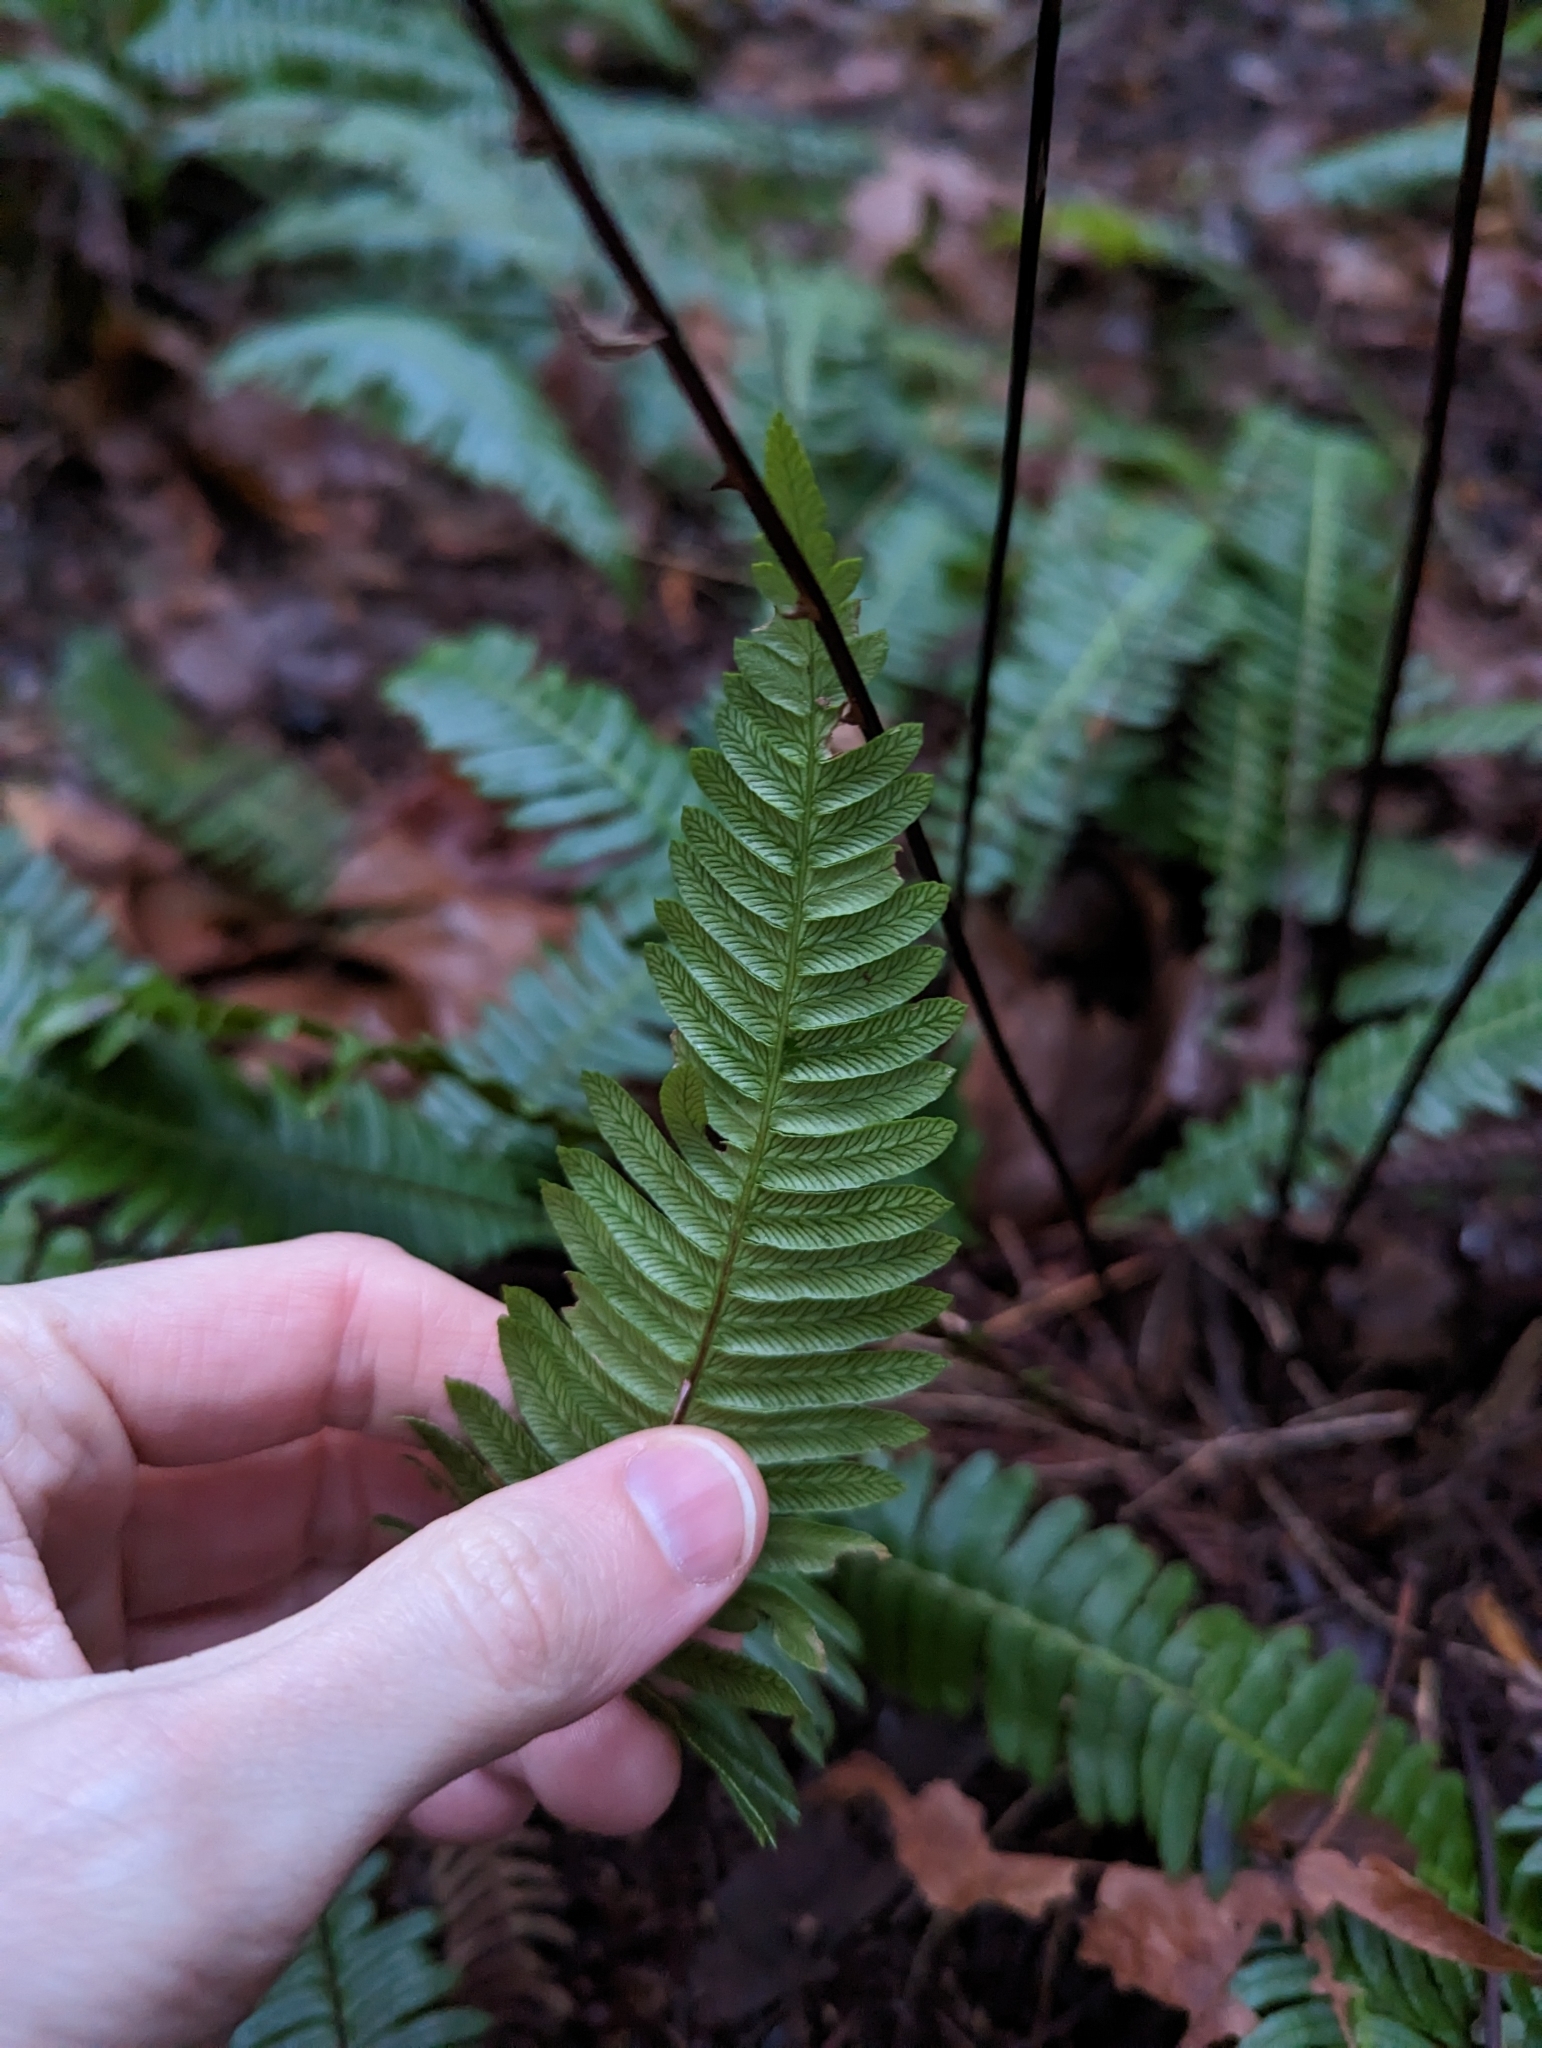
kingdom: Plantae
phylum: Tracheophyta
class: Polypodiopsida
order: Polypodiales
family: Blechnaceae
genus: Struthiopteris
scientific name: Struthiopteris spicant
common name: Deer fern
